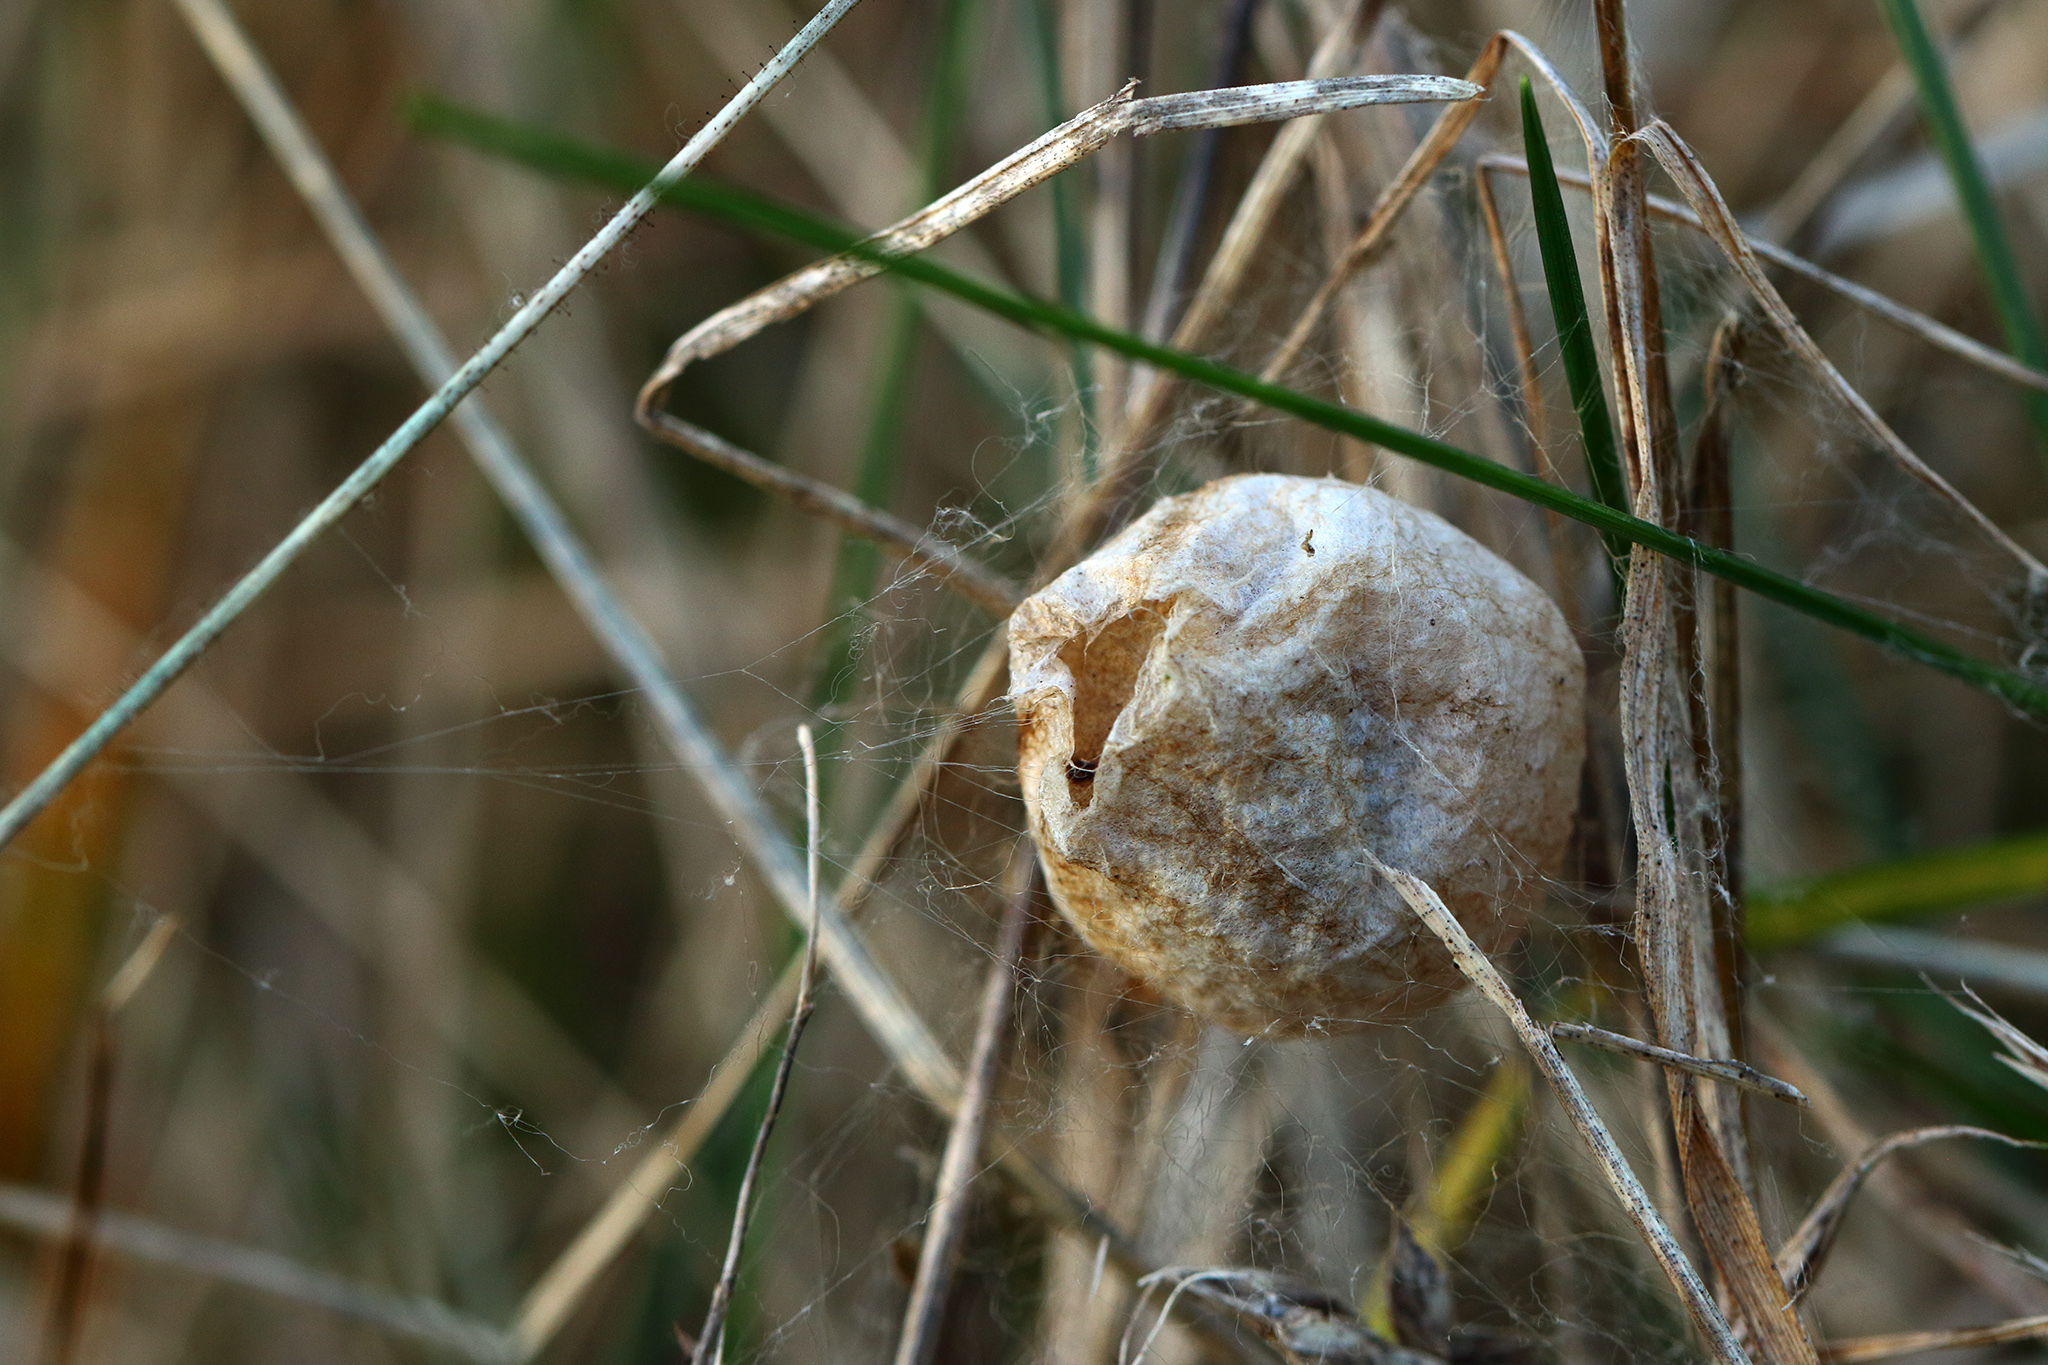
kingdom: Animalia
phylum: Arthropoda
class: Arachnida
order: Araneae
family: Araneidae
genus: Argiope
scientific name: Argiope bruennichi
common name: Wasp spider
